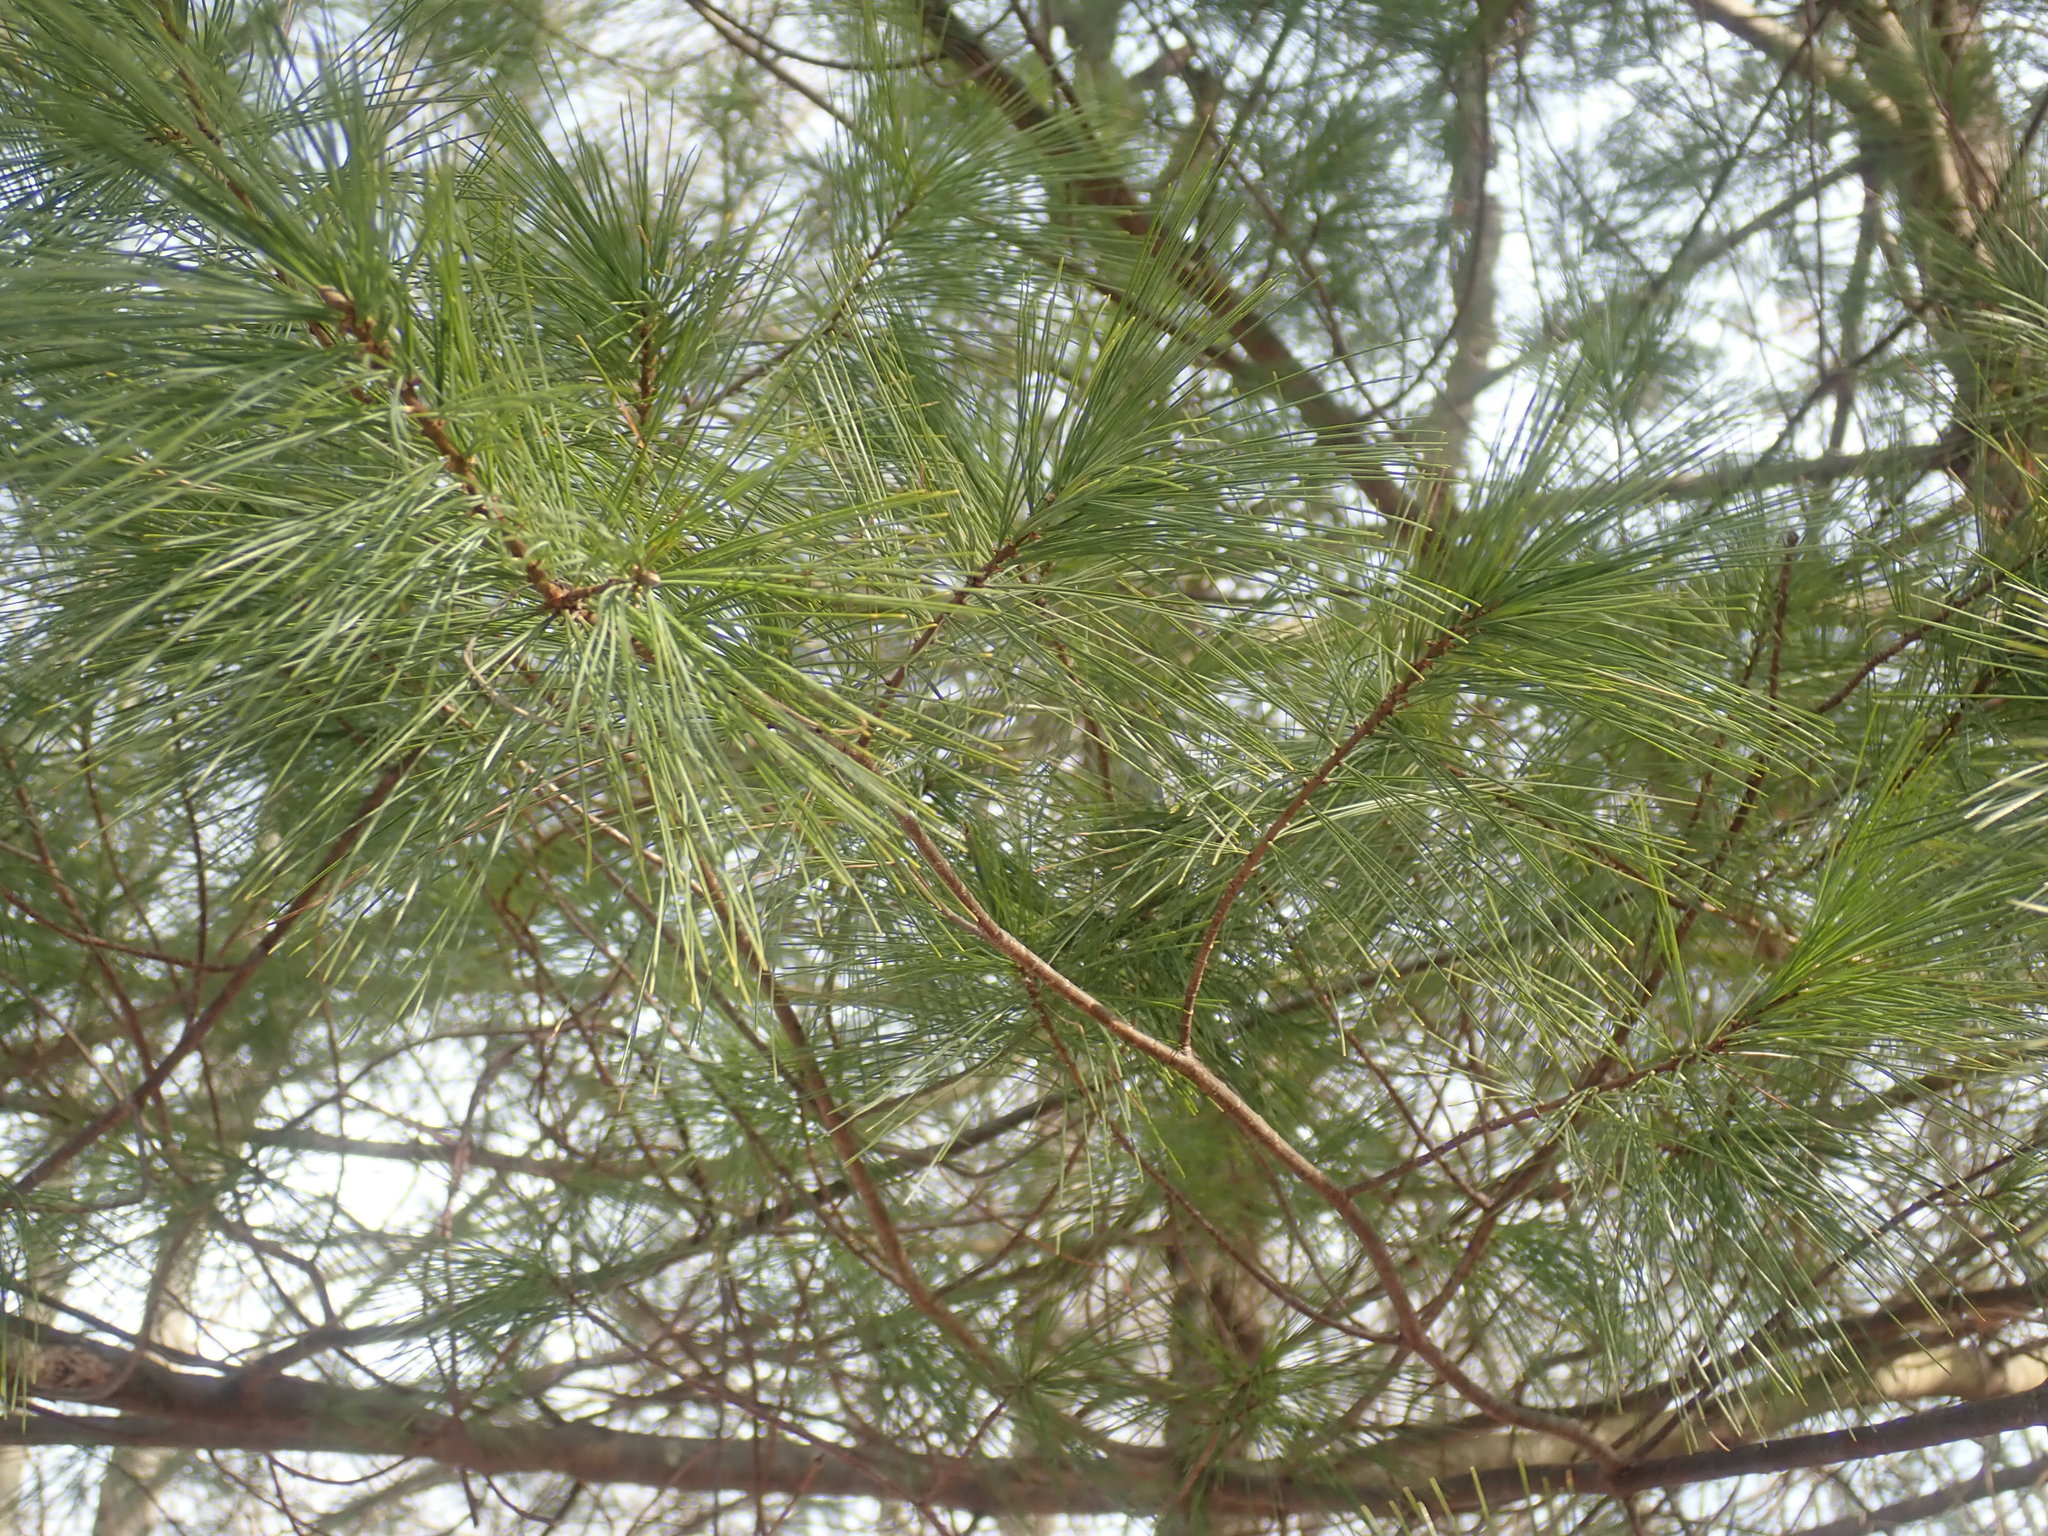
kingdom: Plantae
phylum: Tracheophyta
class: Pinopsida
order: Pinales
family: Pinaceae
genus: Pinus
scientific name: Pinus strobus
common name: Weymouth pine
